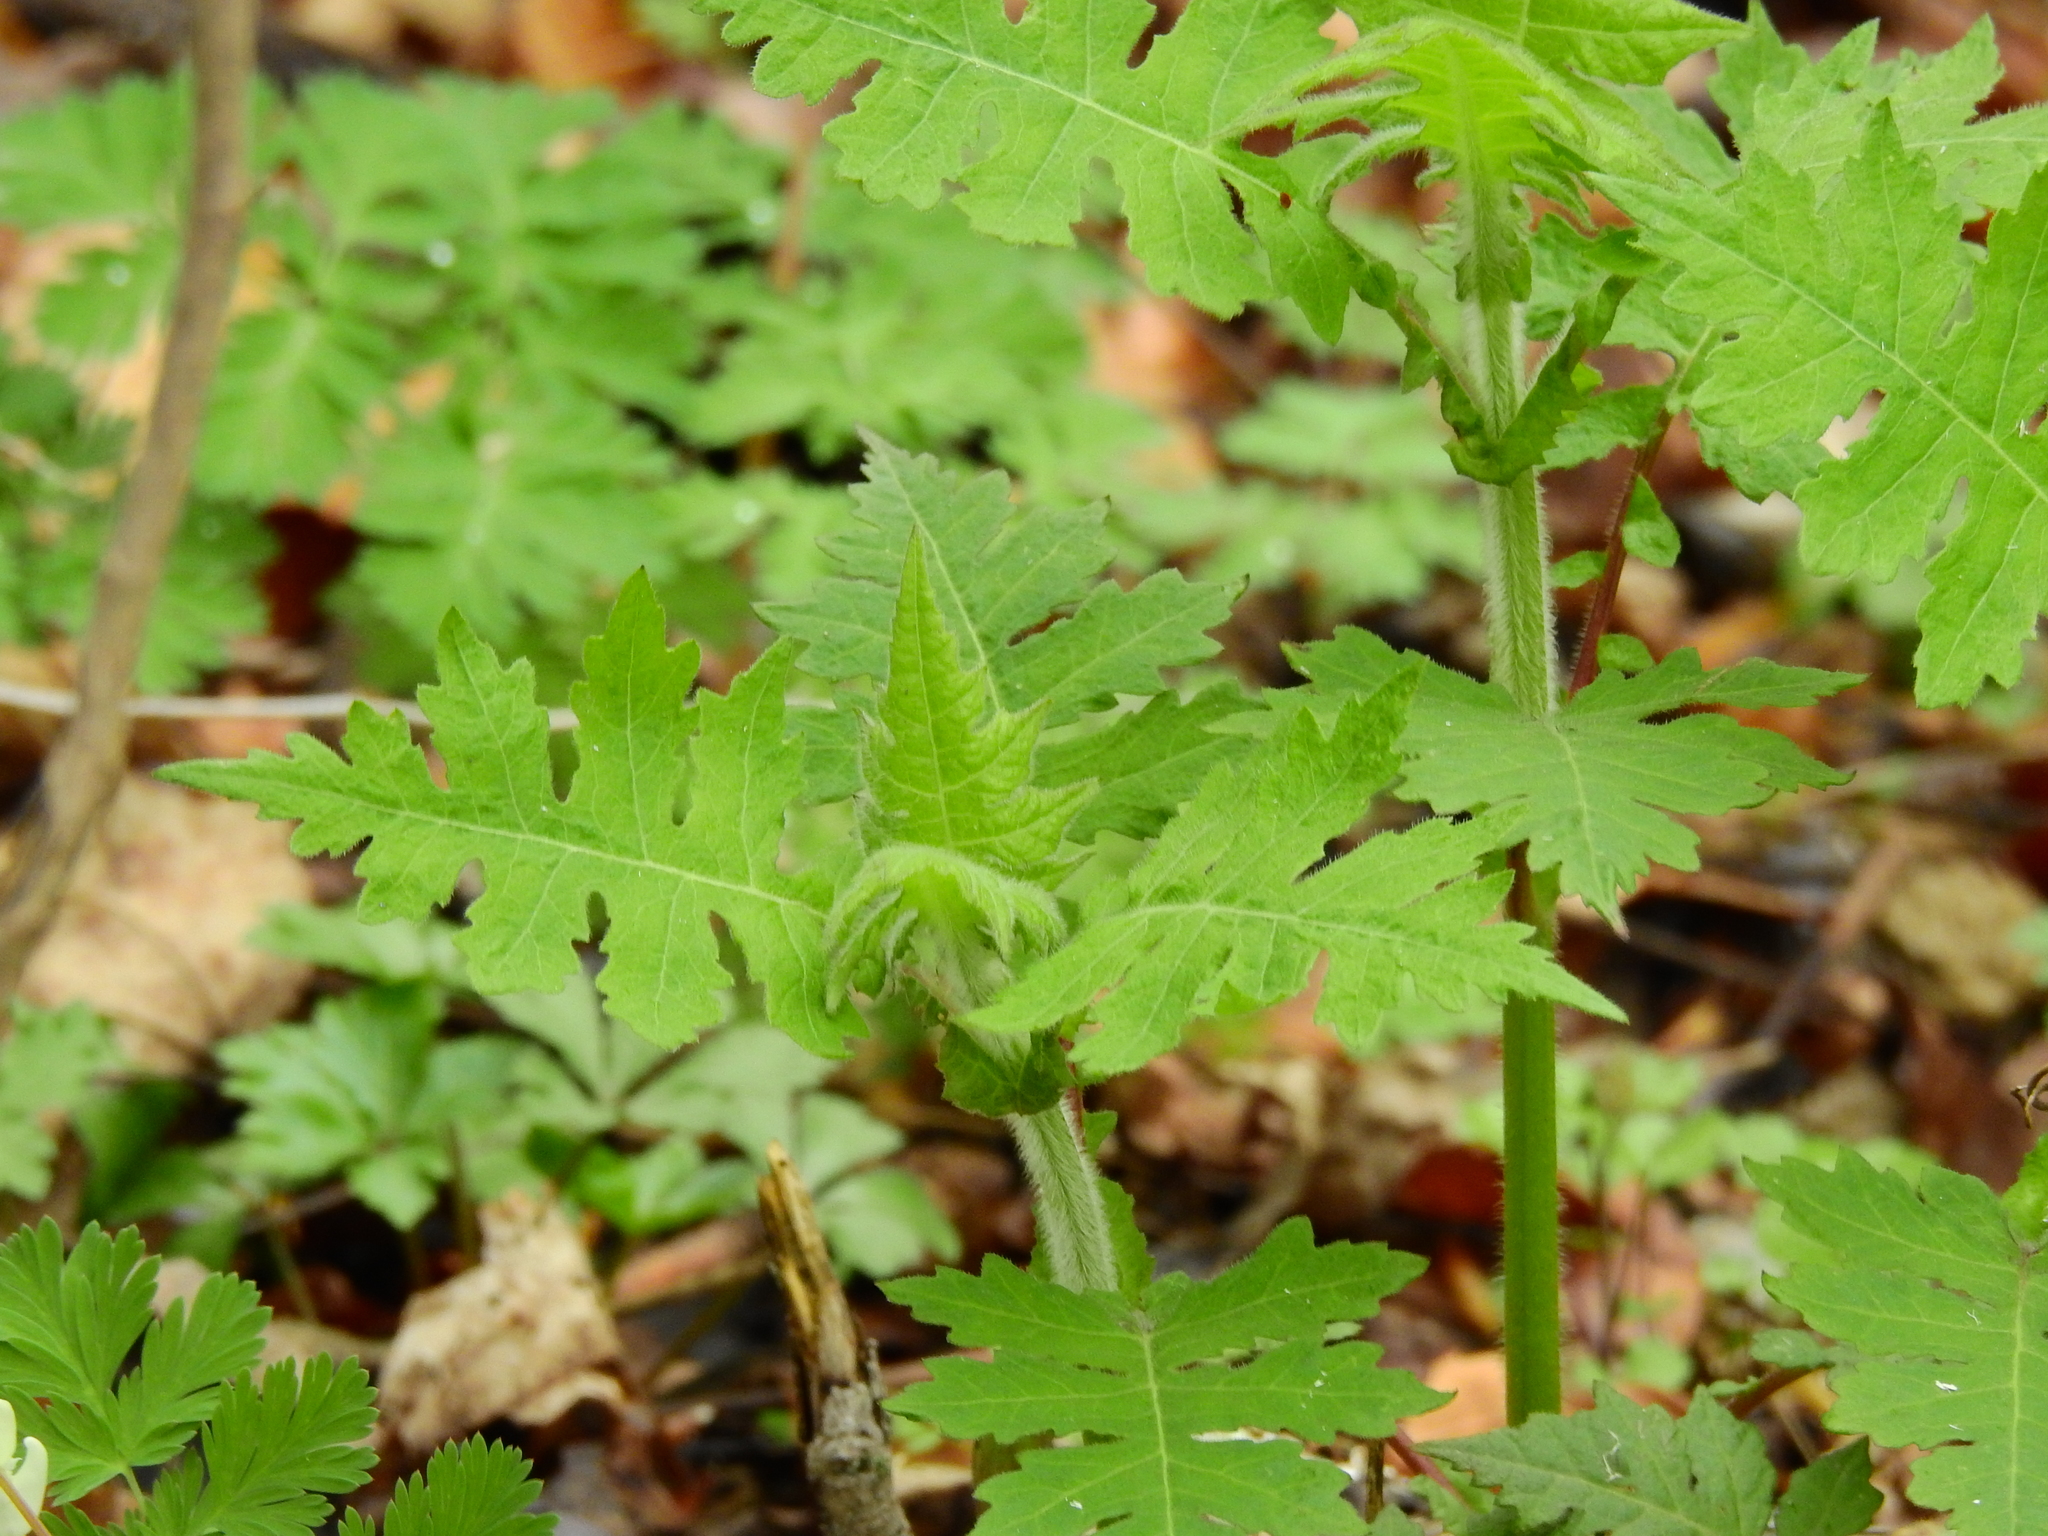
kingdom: Plantae
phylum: Tracheophyta
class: Magnoliopsida
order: Asterales
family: Asteraceae
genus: Polymnia
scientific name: Polymnia canadensis
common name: Pale-flowered leafcup
